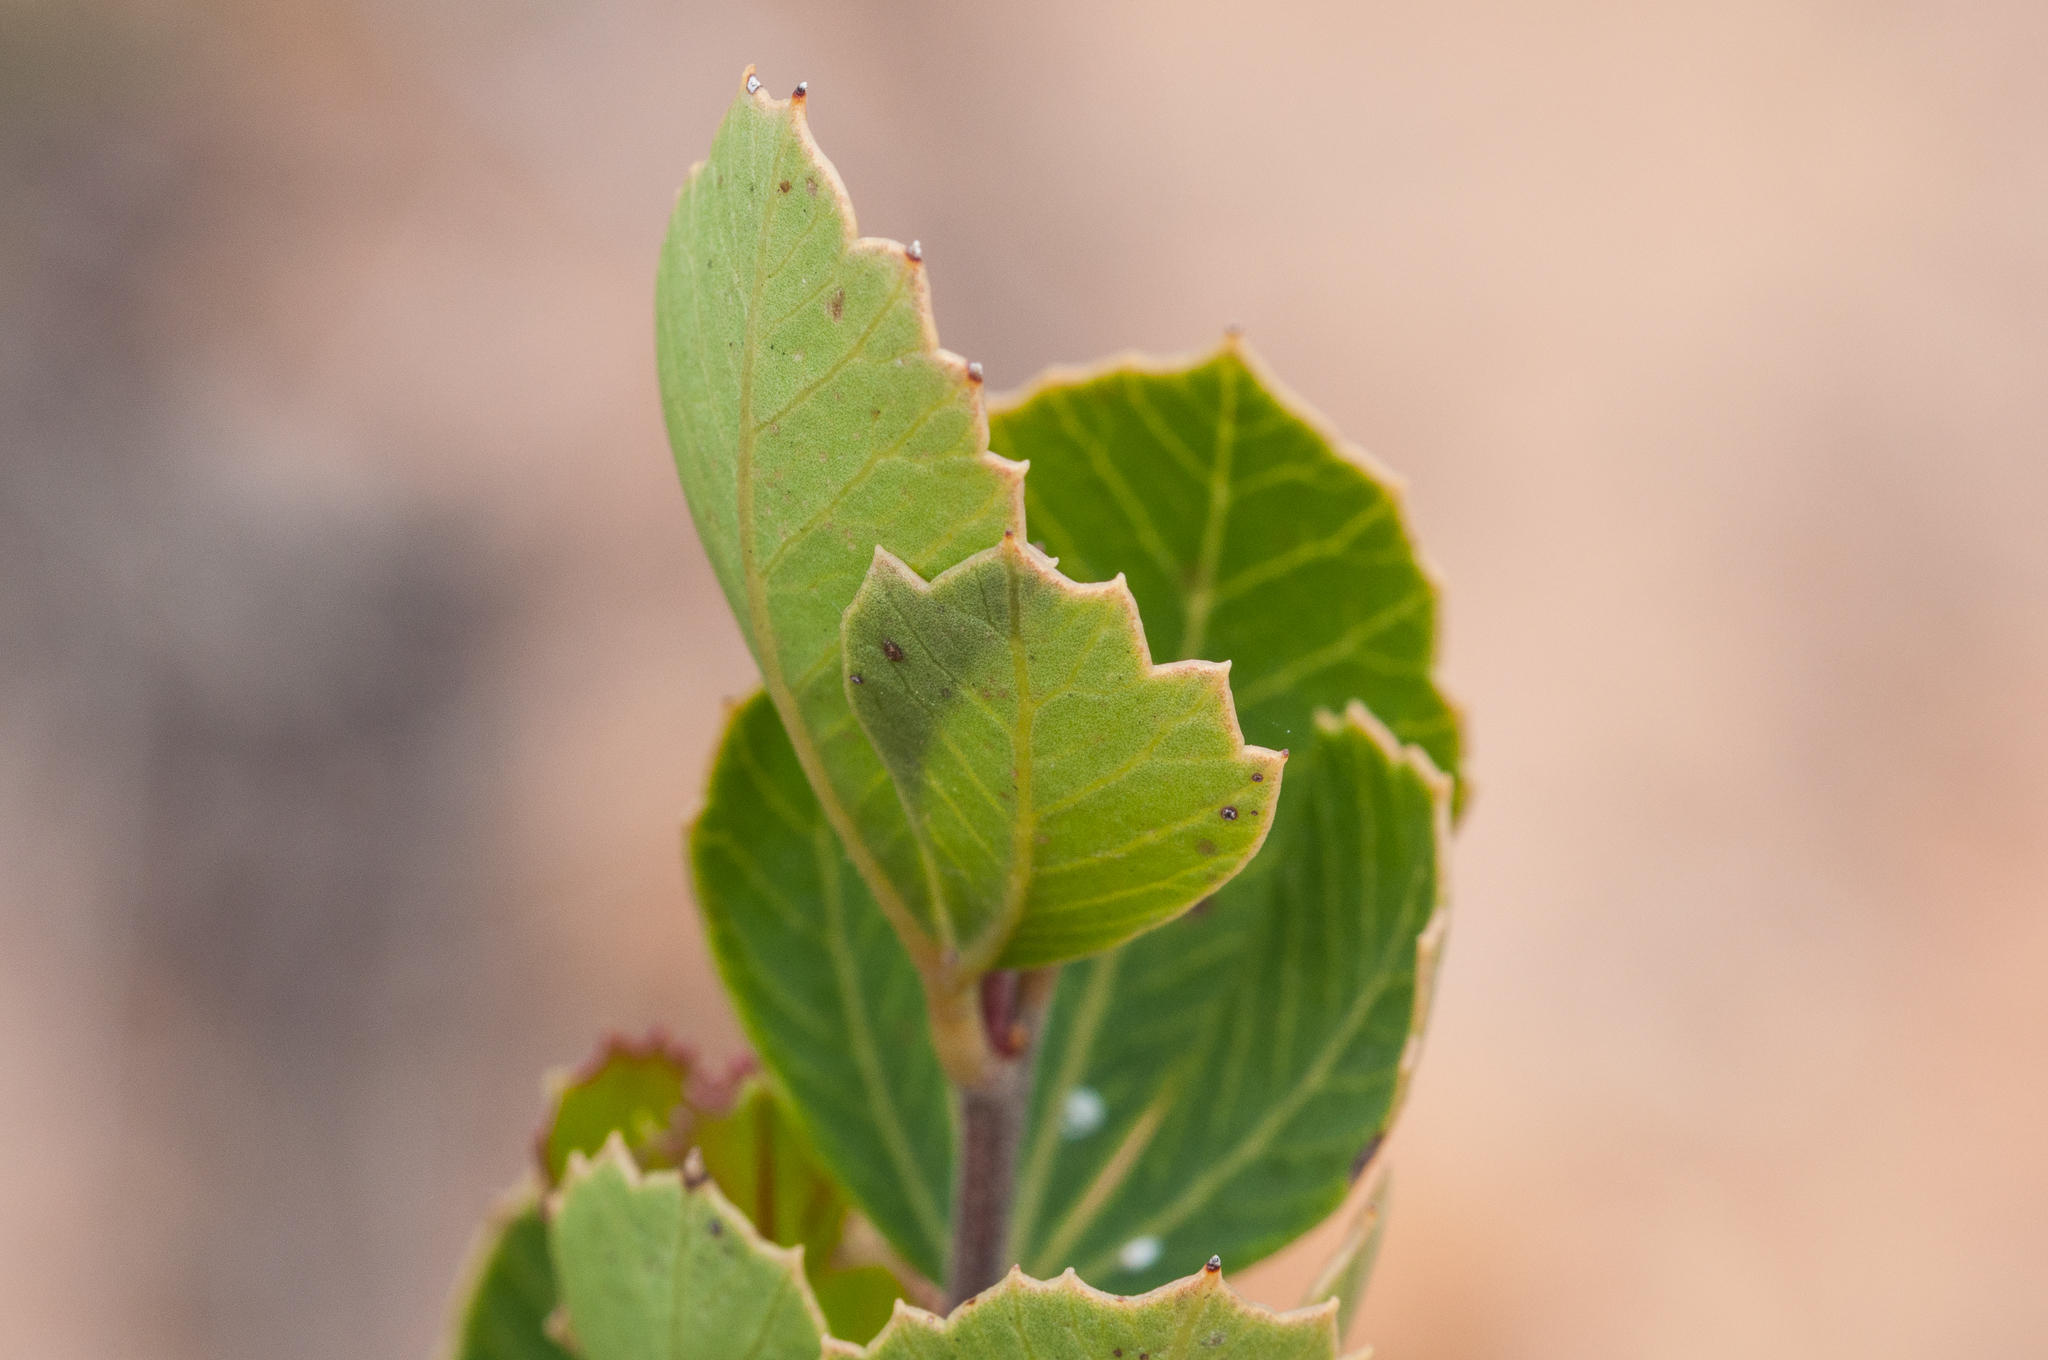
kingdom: Plantae
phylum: Tracheophyta
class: Magnoliopsida
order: Sapindales
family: Anacardiaceae
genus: Searsia
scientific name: Searsia cuneifolia
